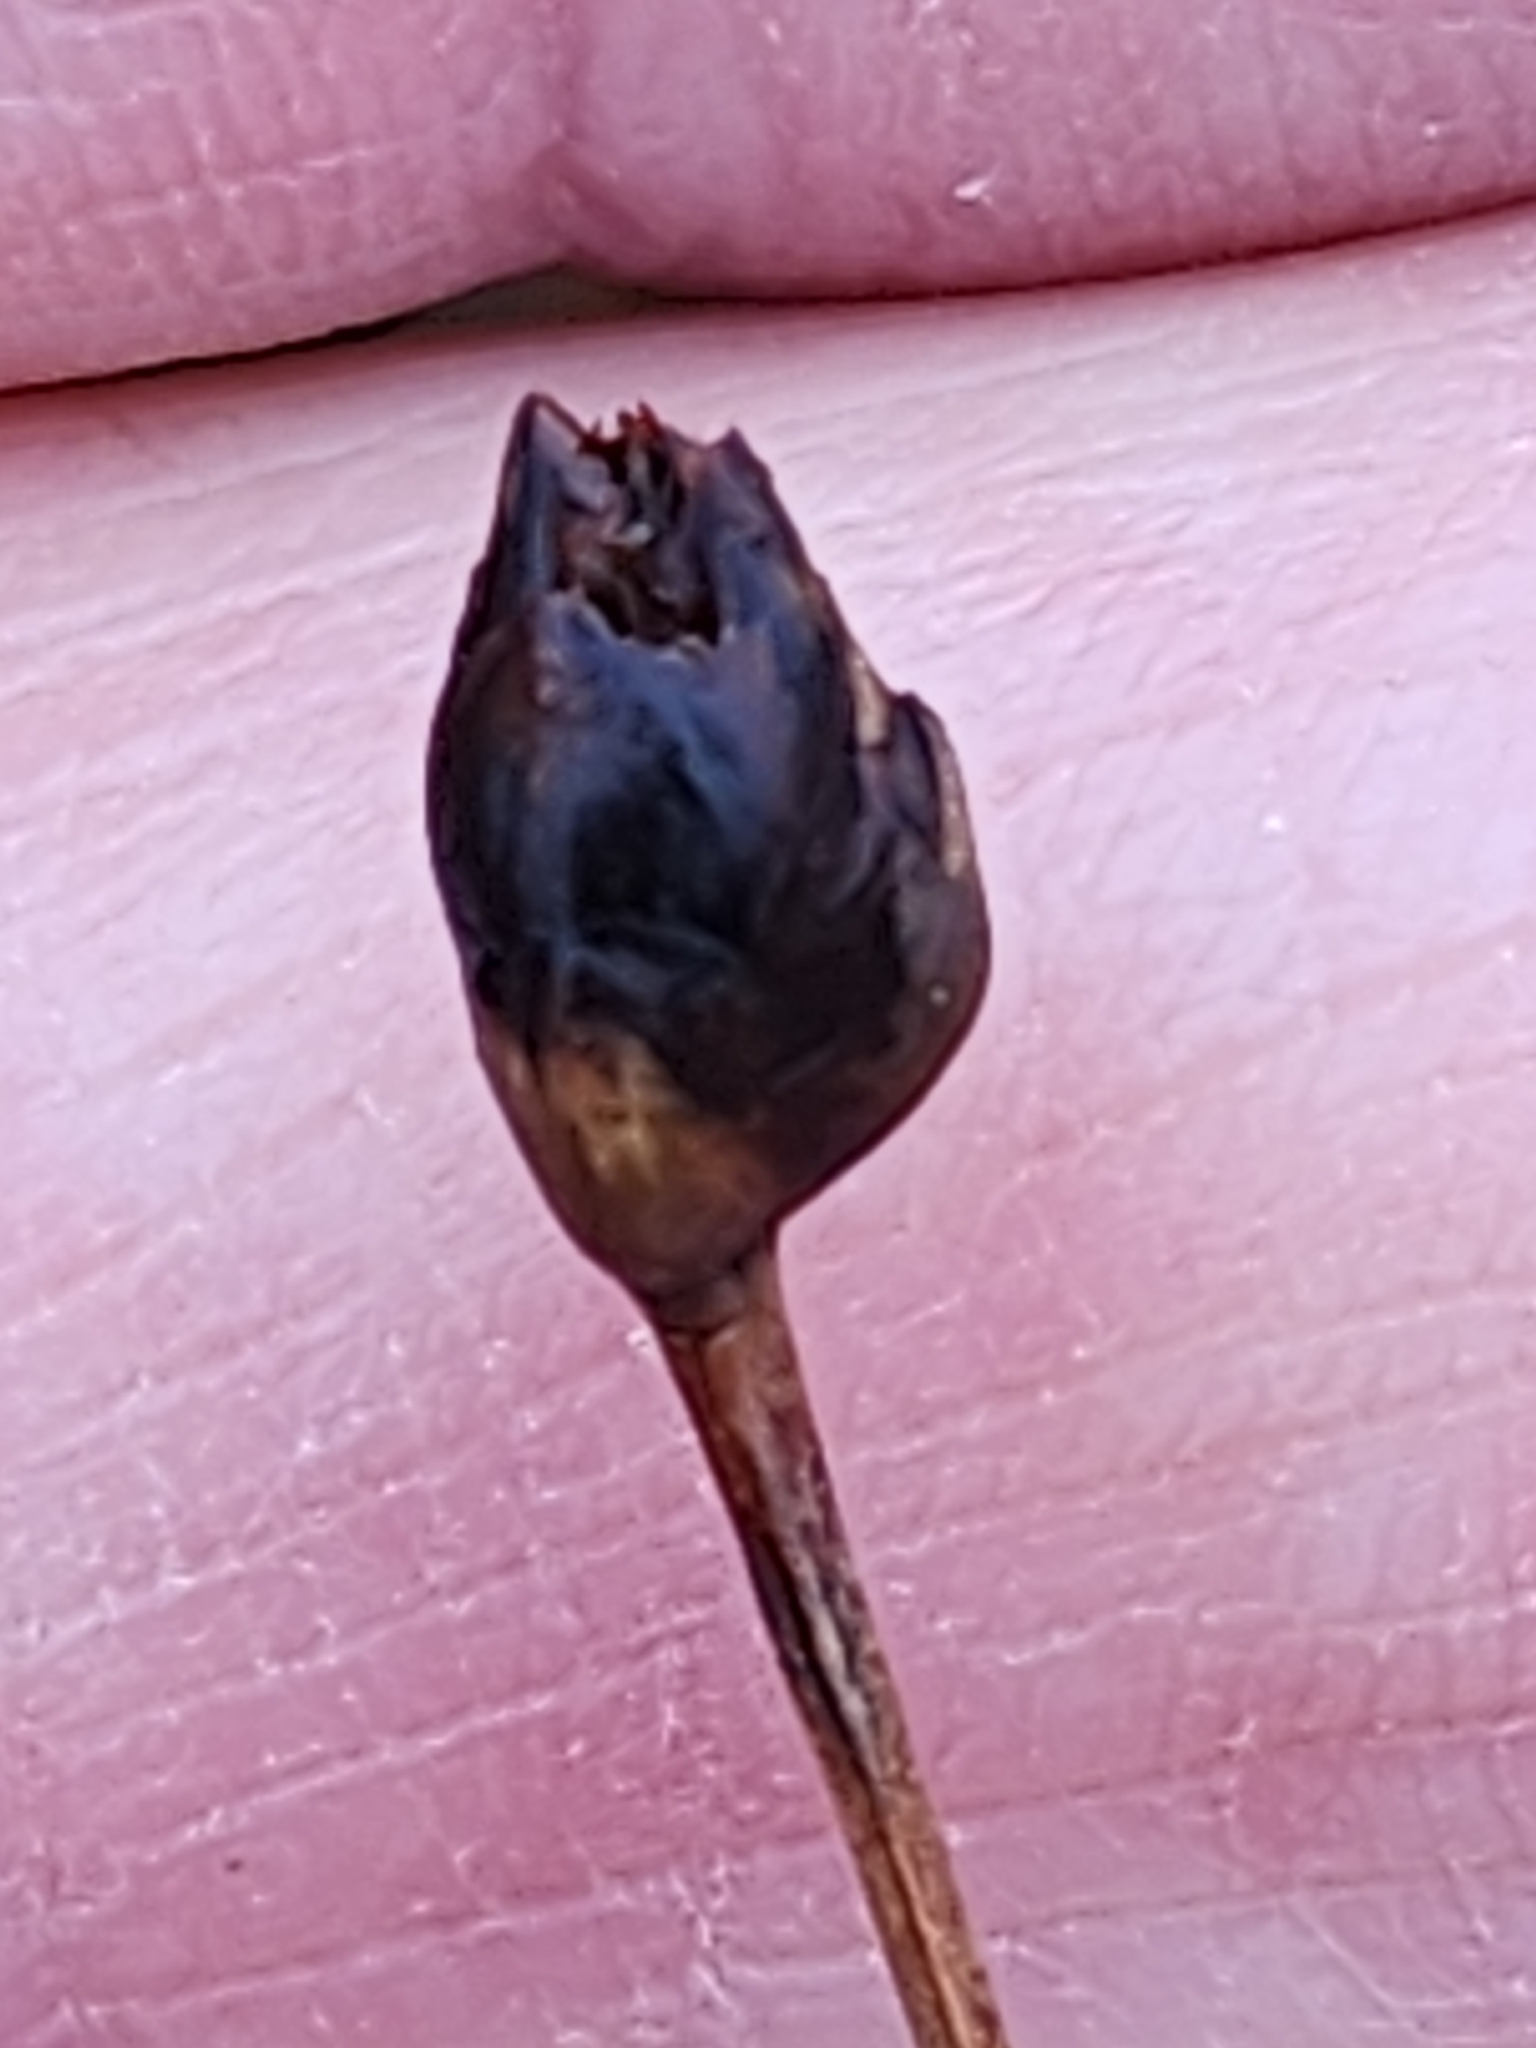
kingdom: Plantae
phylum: Tracheophyta
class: Liliopsida
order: Poales
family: Xyridaceae
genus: Xyris
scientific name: Xyris montana
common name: Northern yellow-eyed-grass
